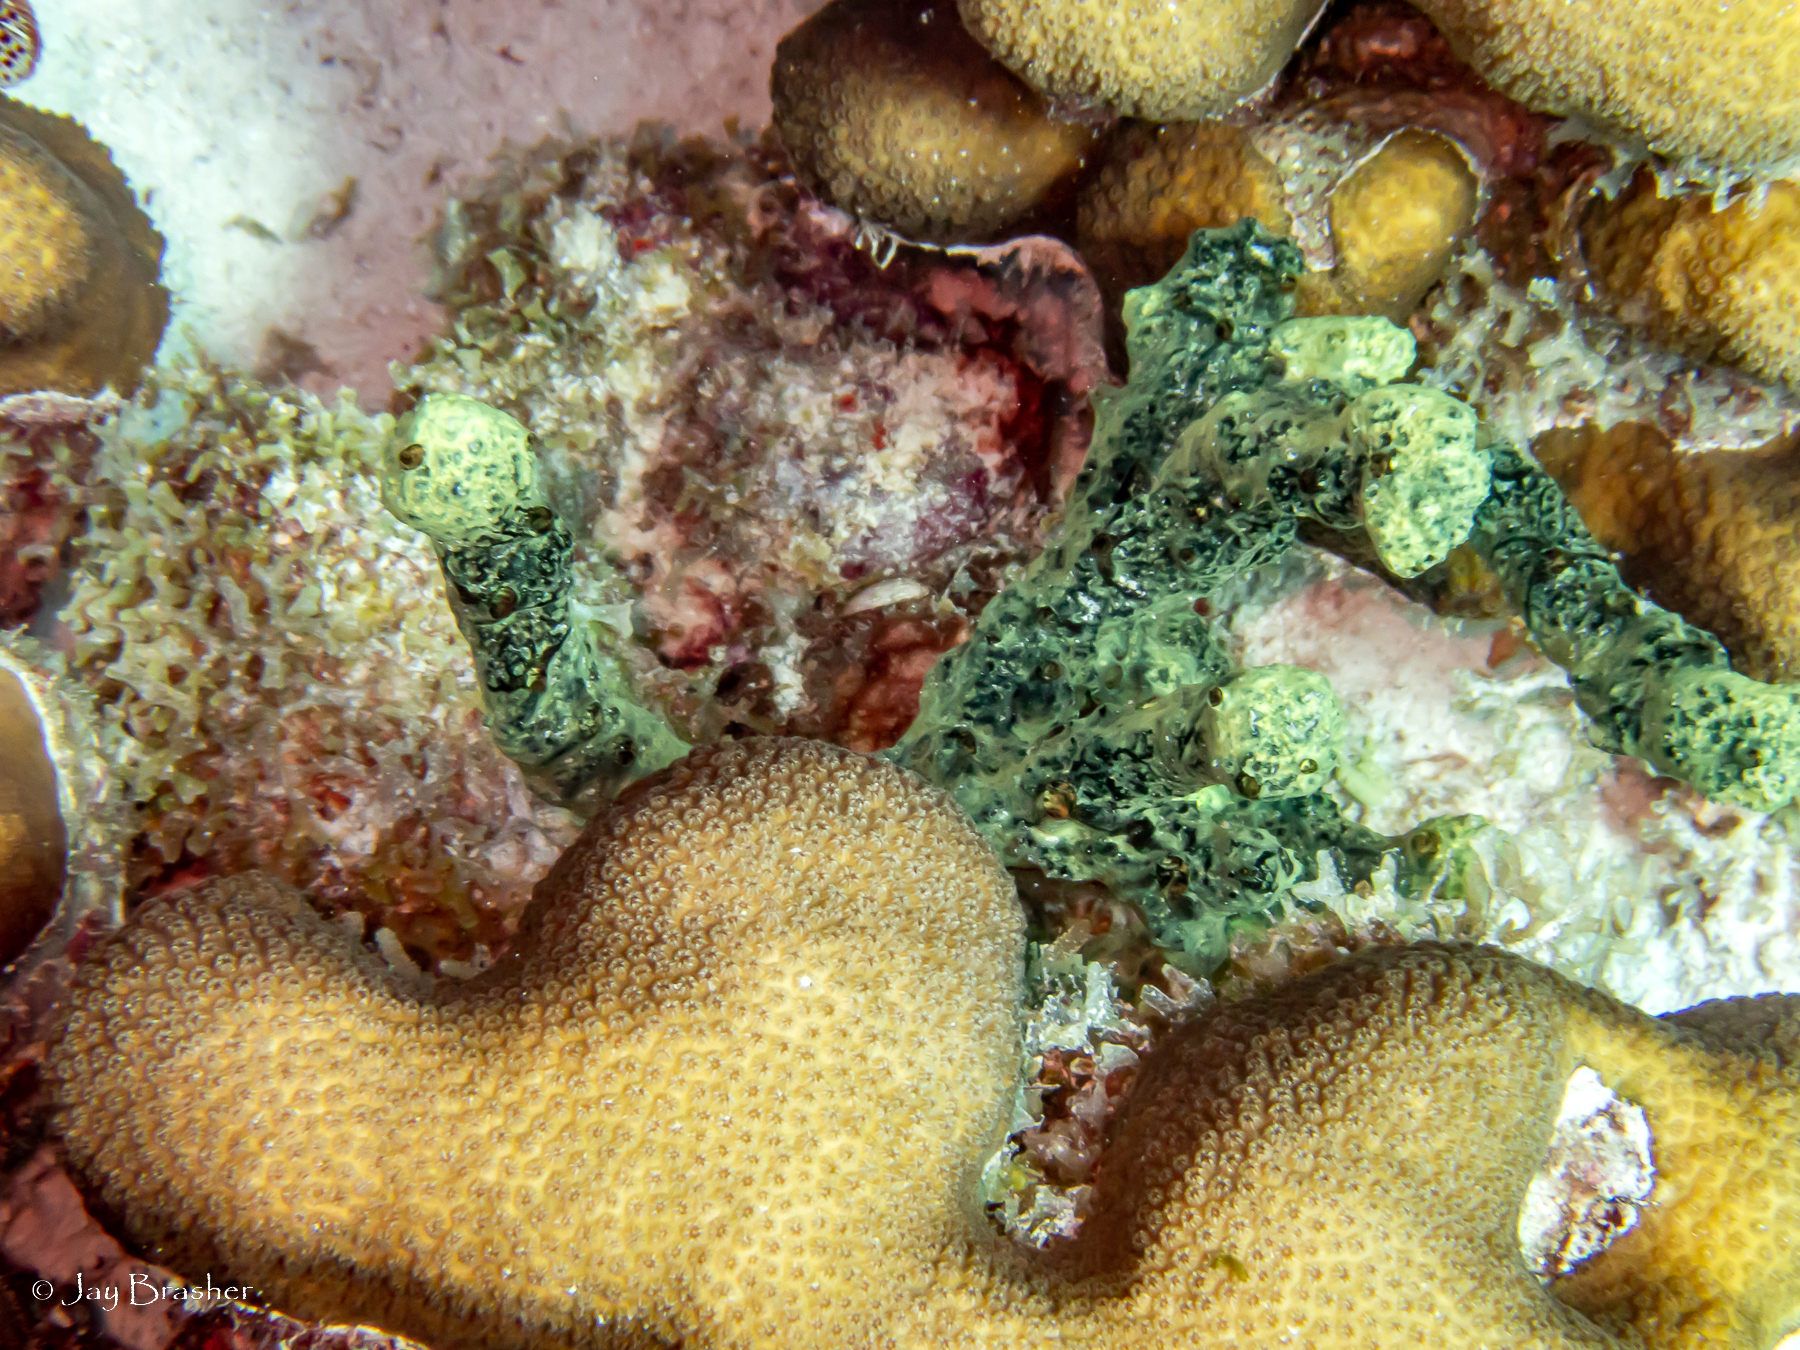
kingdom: Animalia
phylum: Porifera
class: Demospongiae
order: Poecilosclerida
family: Iotrochotidae
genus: Iotrochota
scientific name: Iotrochota birotulata
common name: Purple bleeding sponge
